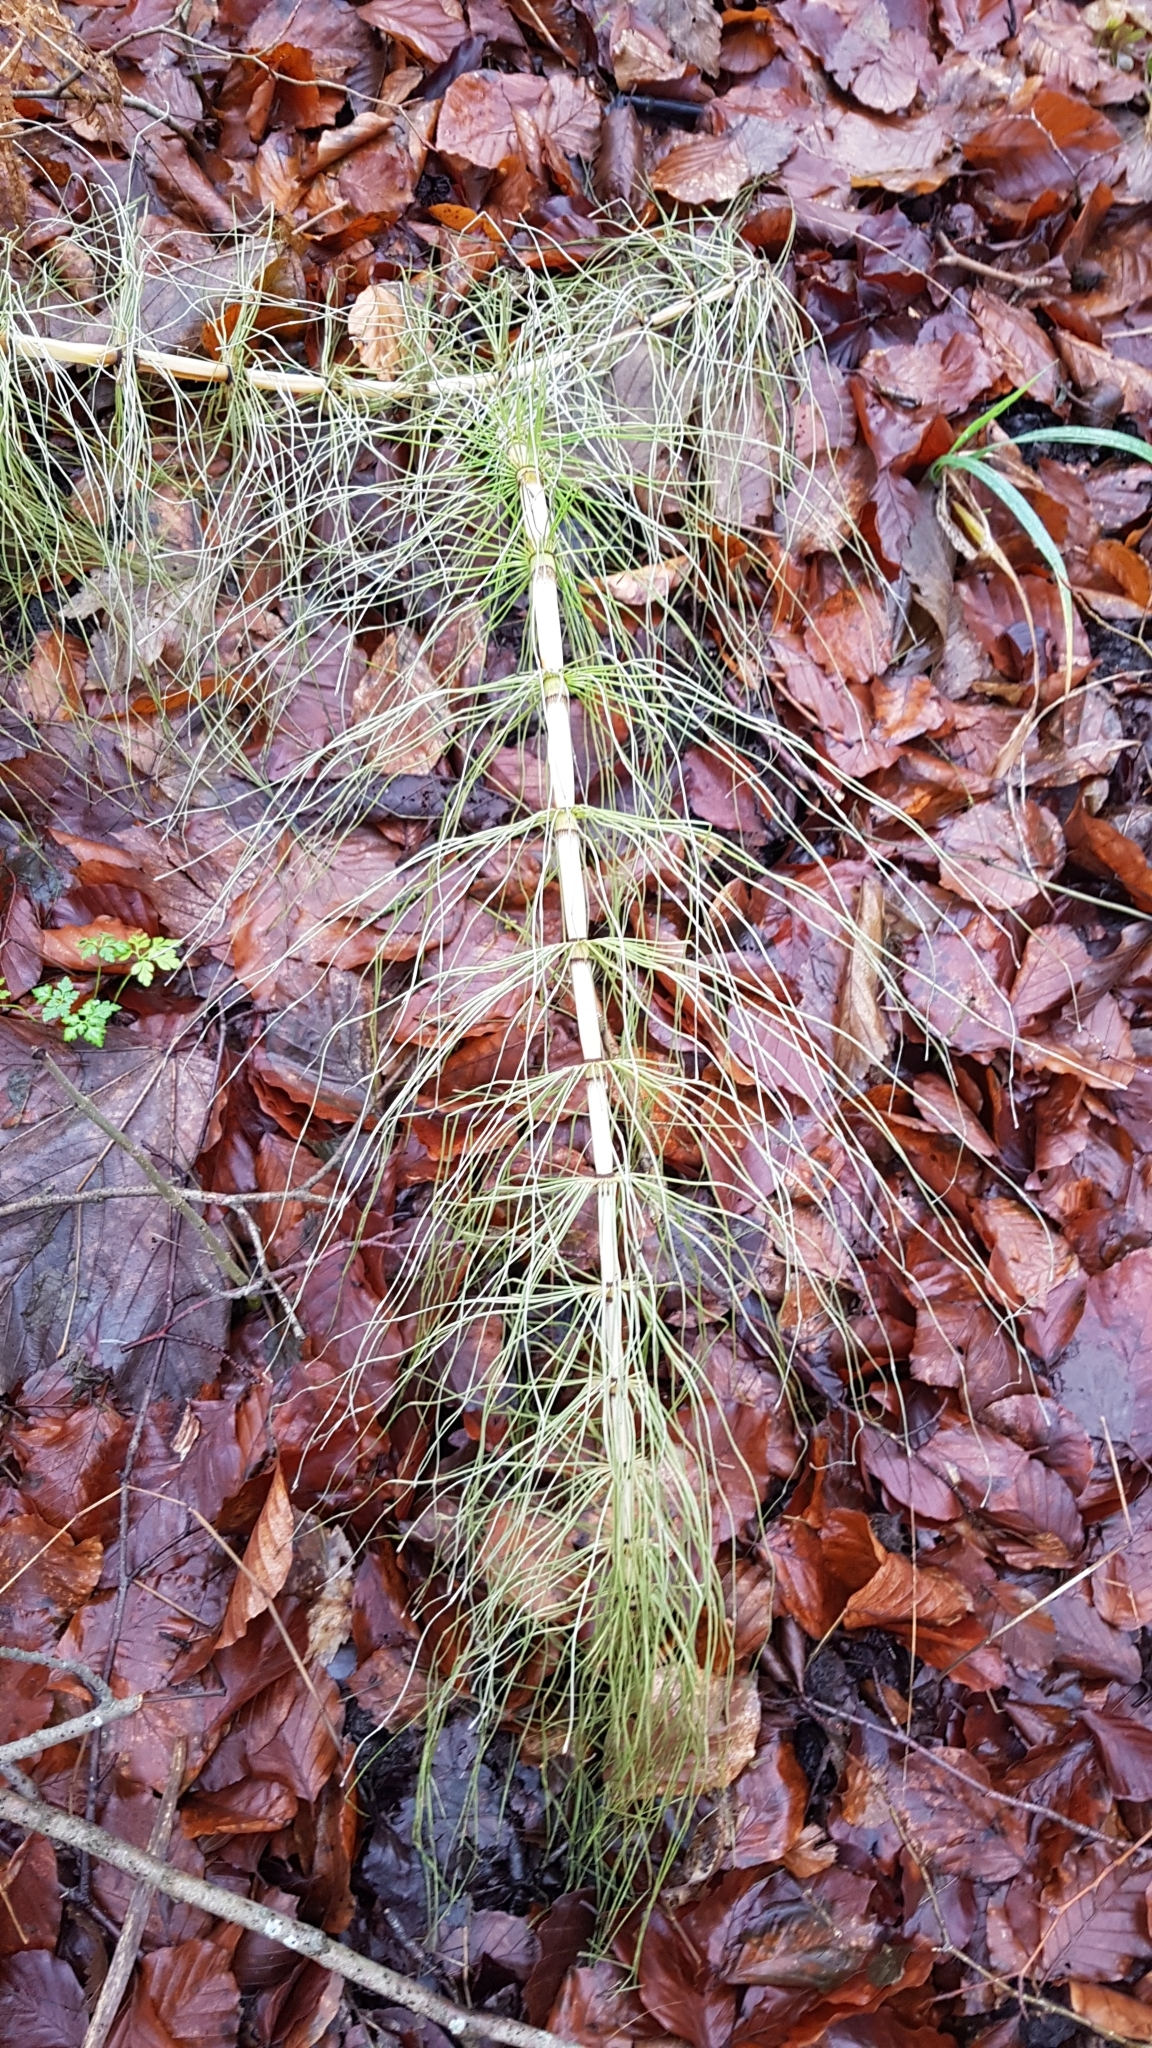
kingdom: Plantae
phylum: Tracheophyta
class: Polypodiopsida
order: Equisetales
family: Equisetaceae
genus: Equisetum
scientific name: Equisetum telmateia
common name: Great horsetail
